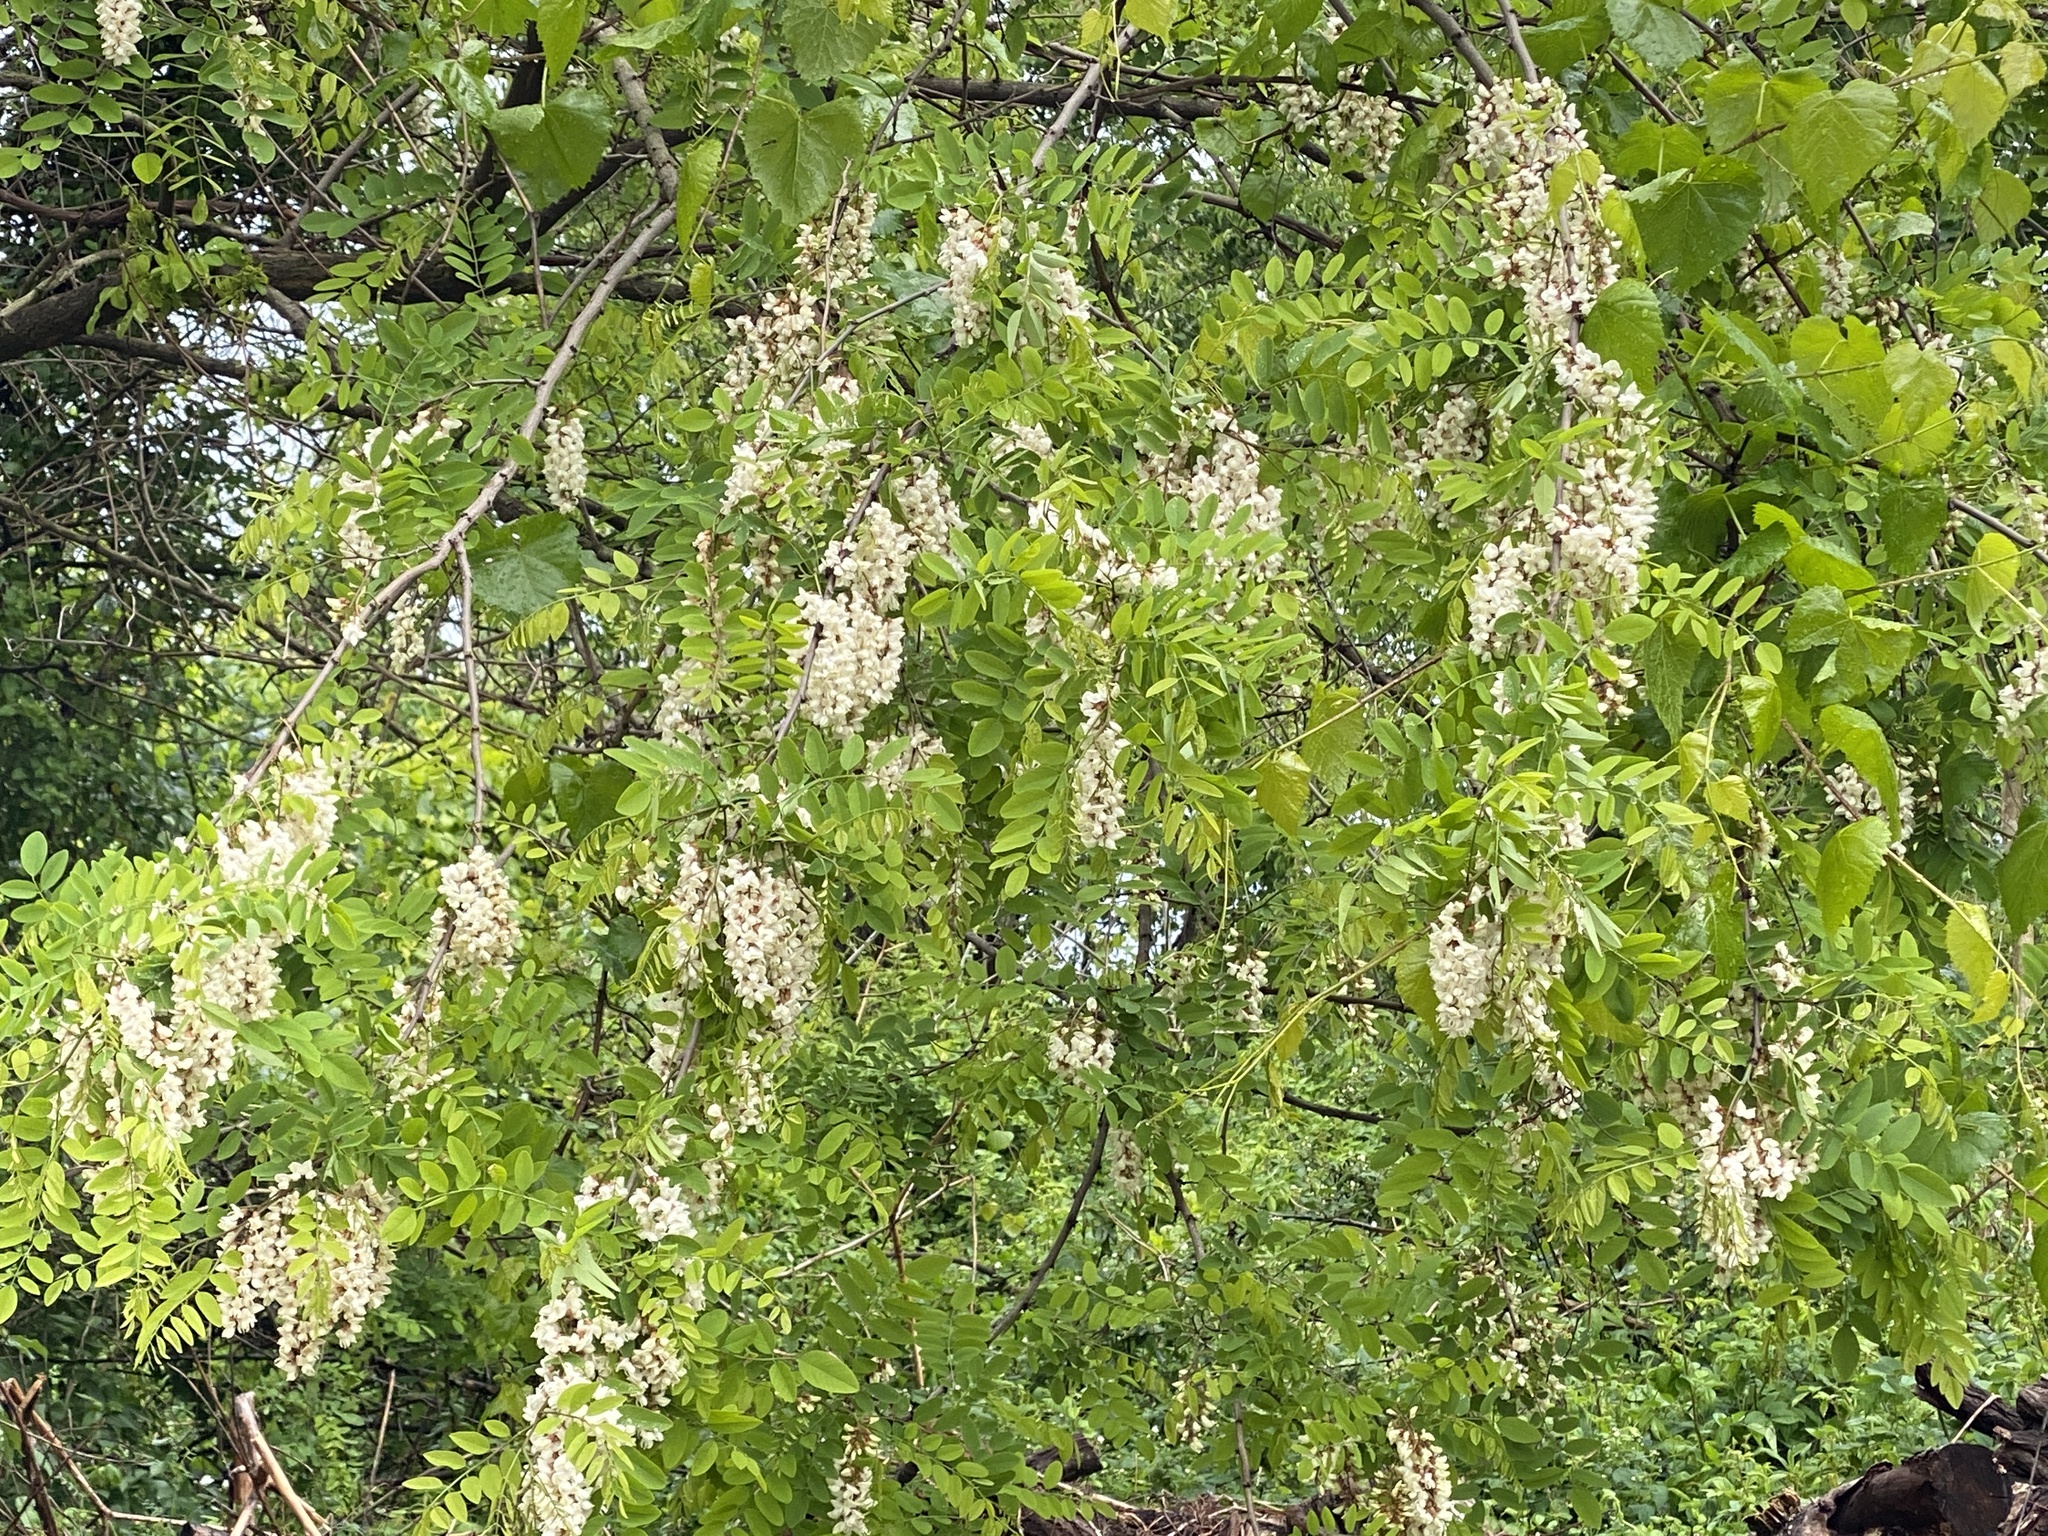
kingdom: Plantae
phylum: Tracheophyta
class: Magnoliopsida
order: Fabales
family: Fabaceae
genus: Robinia
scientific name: Robinia pseudoacacia
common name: Black locust
